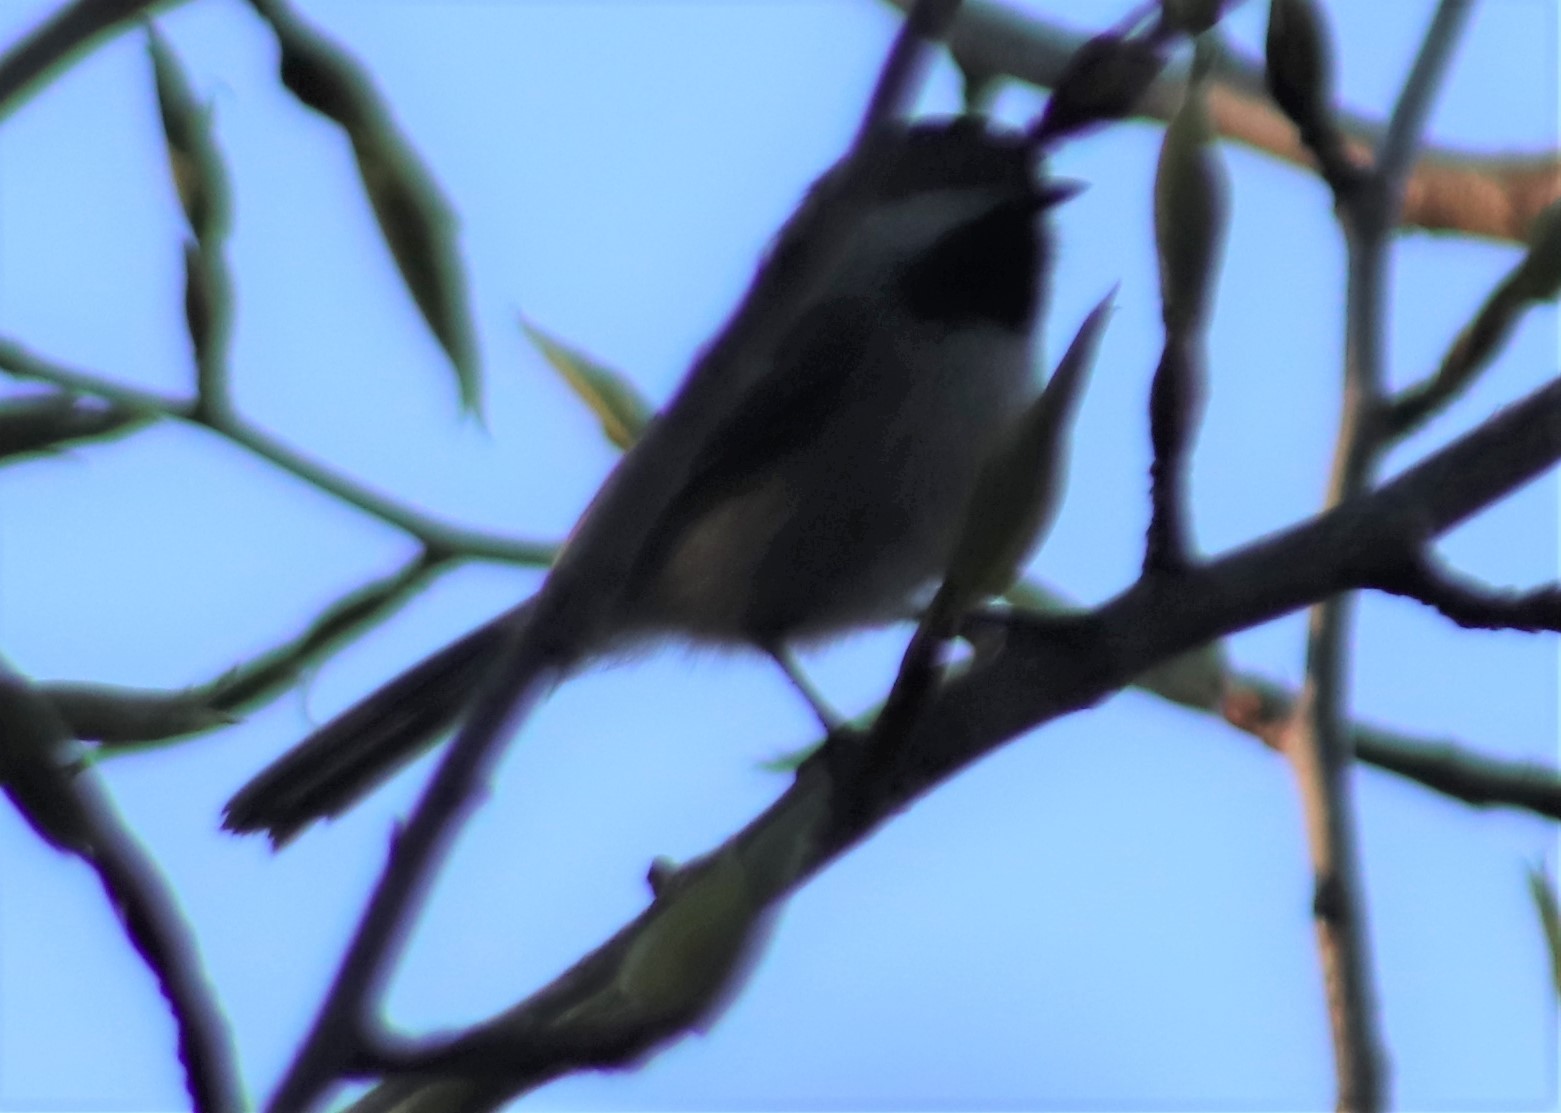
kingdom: Animalia
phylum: Chordata
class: Aves
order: Passeriformes
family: Paridae
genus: Poecile
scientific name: Poecile atricapillus
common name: Black-capped chickadee
